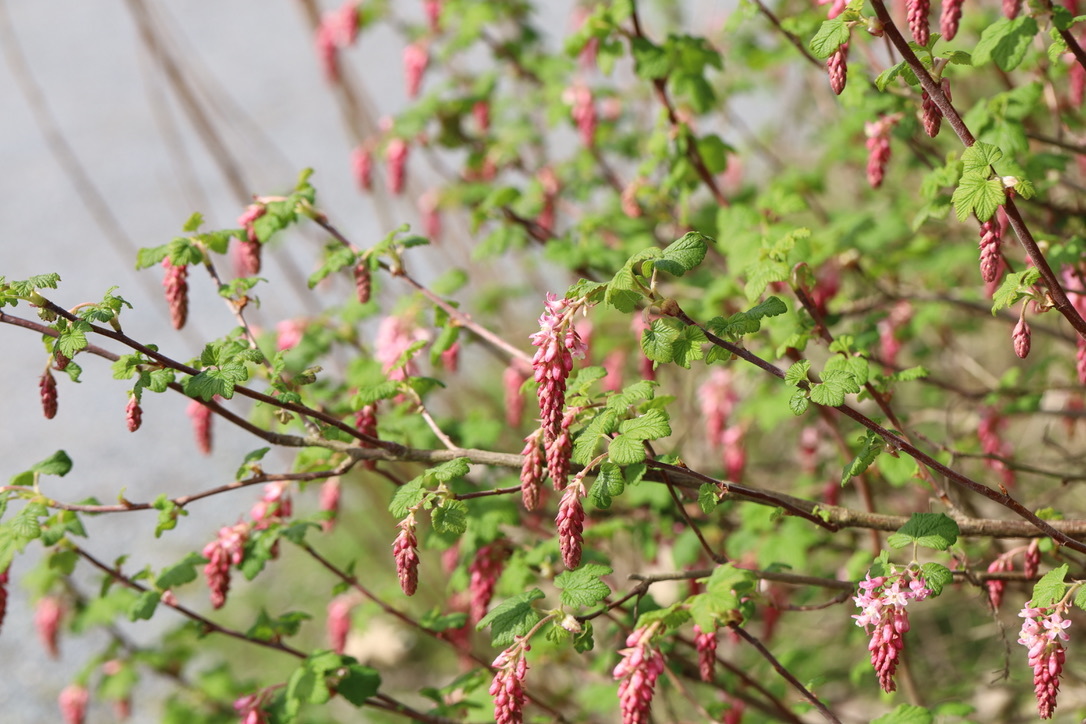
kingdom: Plantae
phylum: Tracheophyta
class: Magnoliopsida
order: Saxifragales
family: Grossulariaceae
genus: Ribes
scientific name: Ribes sanguineum
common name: Flowering currant
